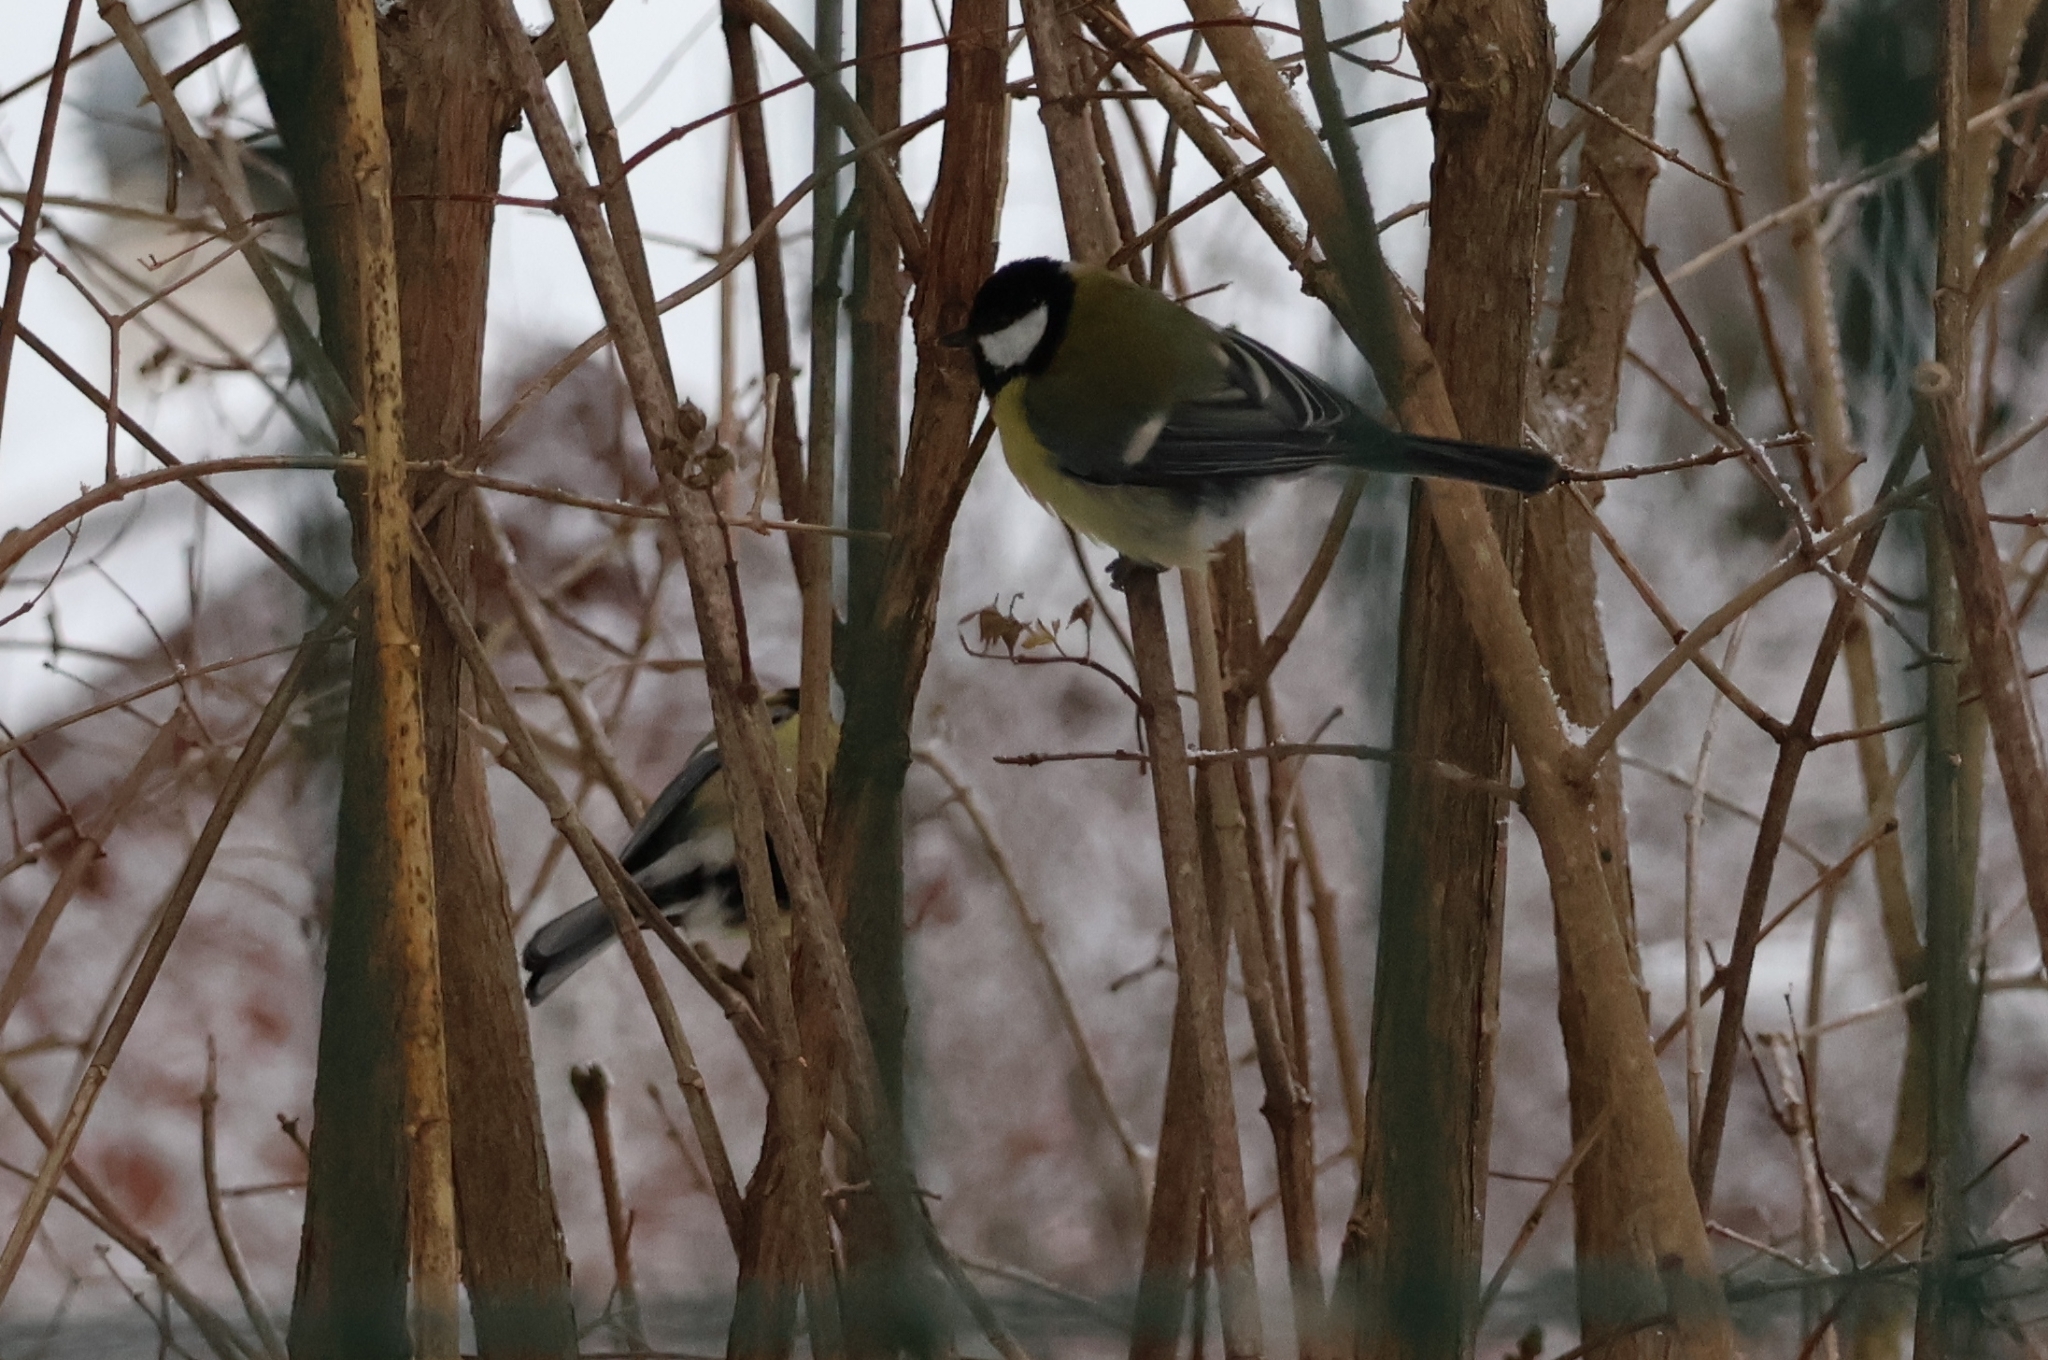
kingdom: Animalia
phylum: Chordata
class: Aves
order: Passeriformes
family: Paridae
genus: Parus
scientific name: Parus major
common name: Great tit
